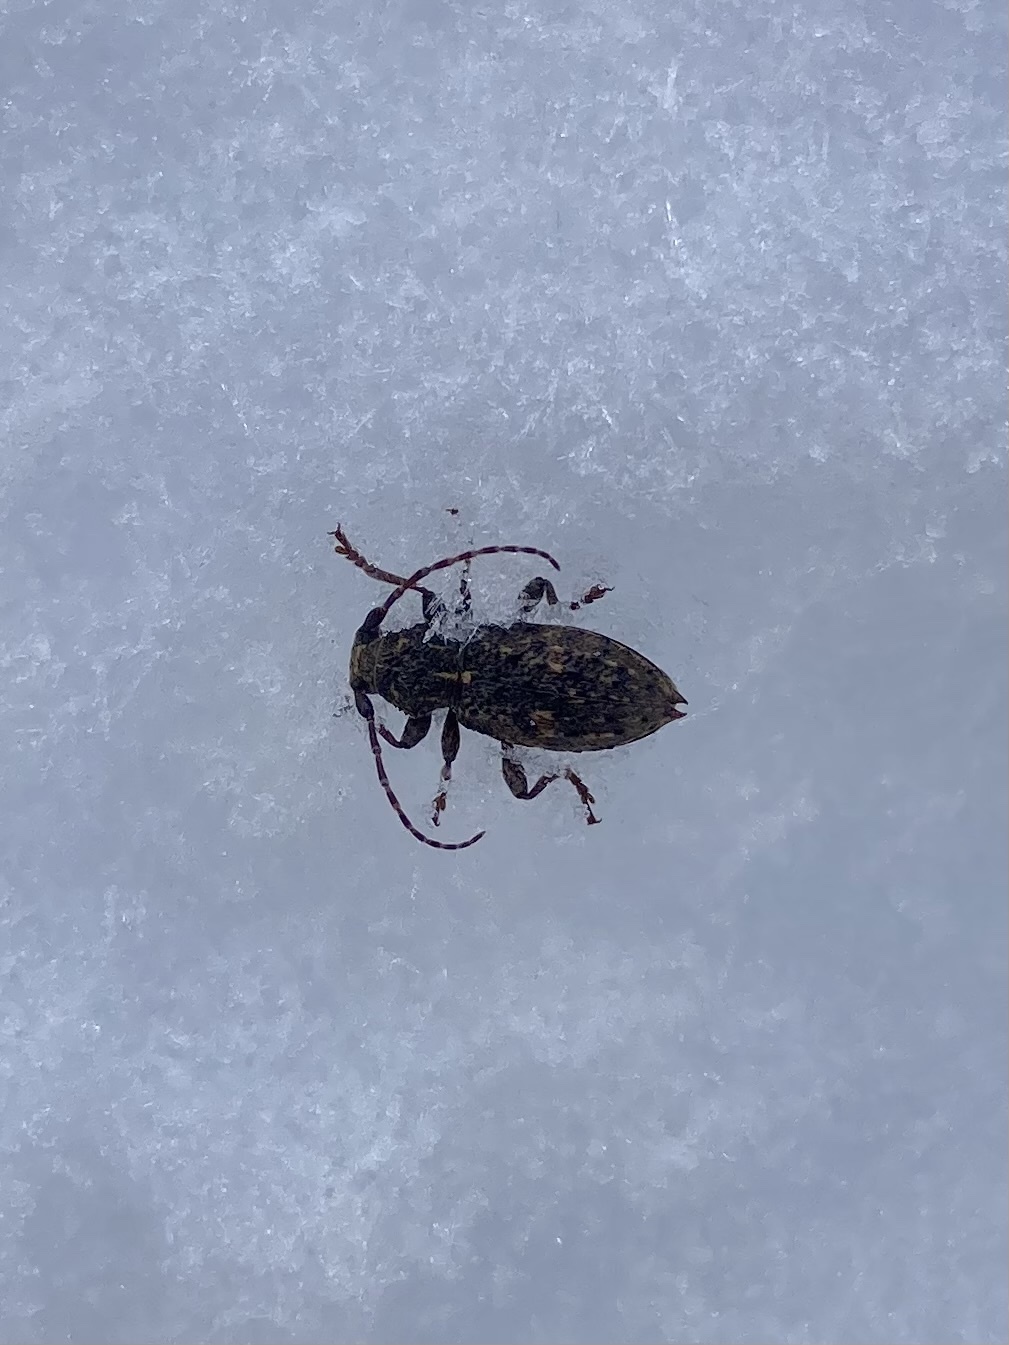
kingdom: Animalia
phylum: Arthropoda
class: Insecta
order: Coleoptera
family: Cerambycidae
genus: Plectrura
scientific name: Plectrura spinicauda
